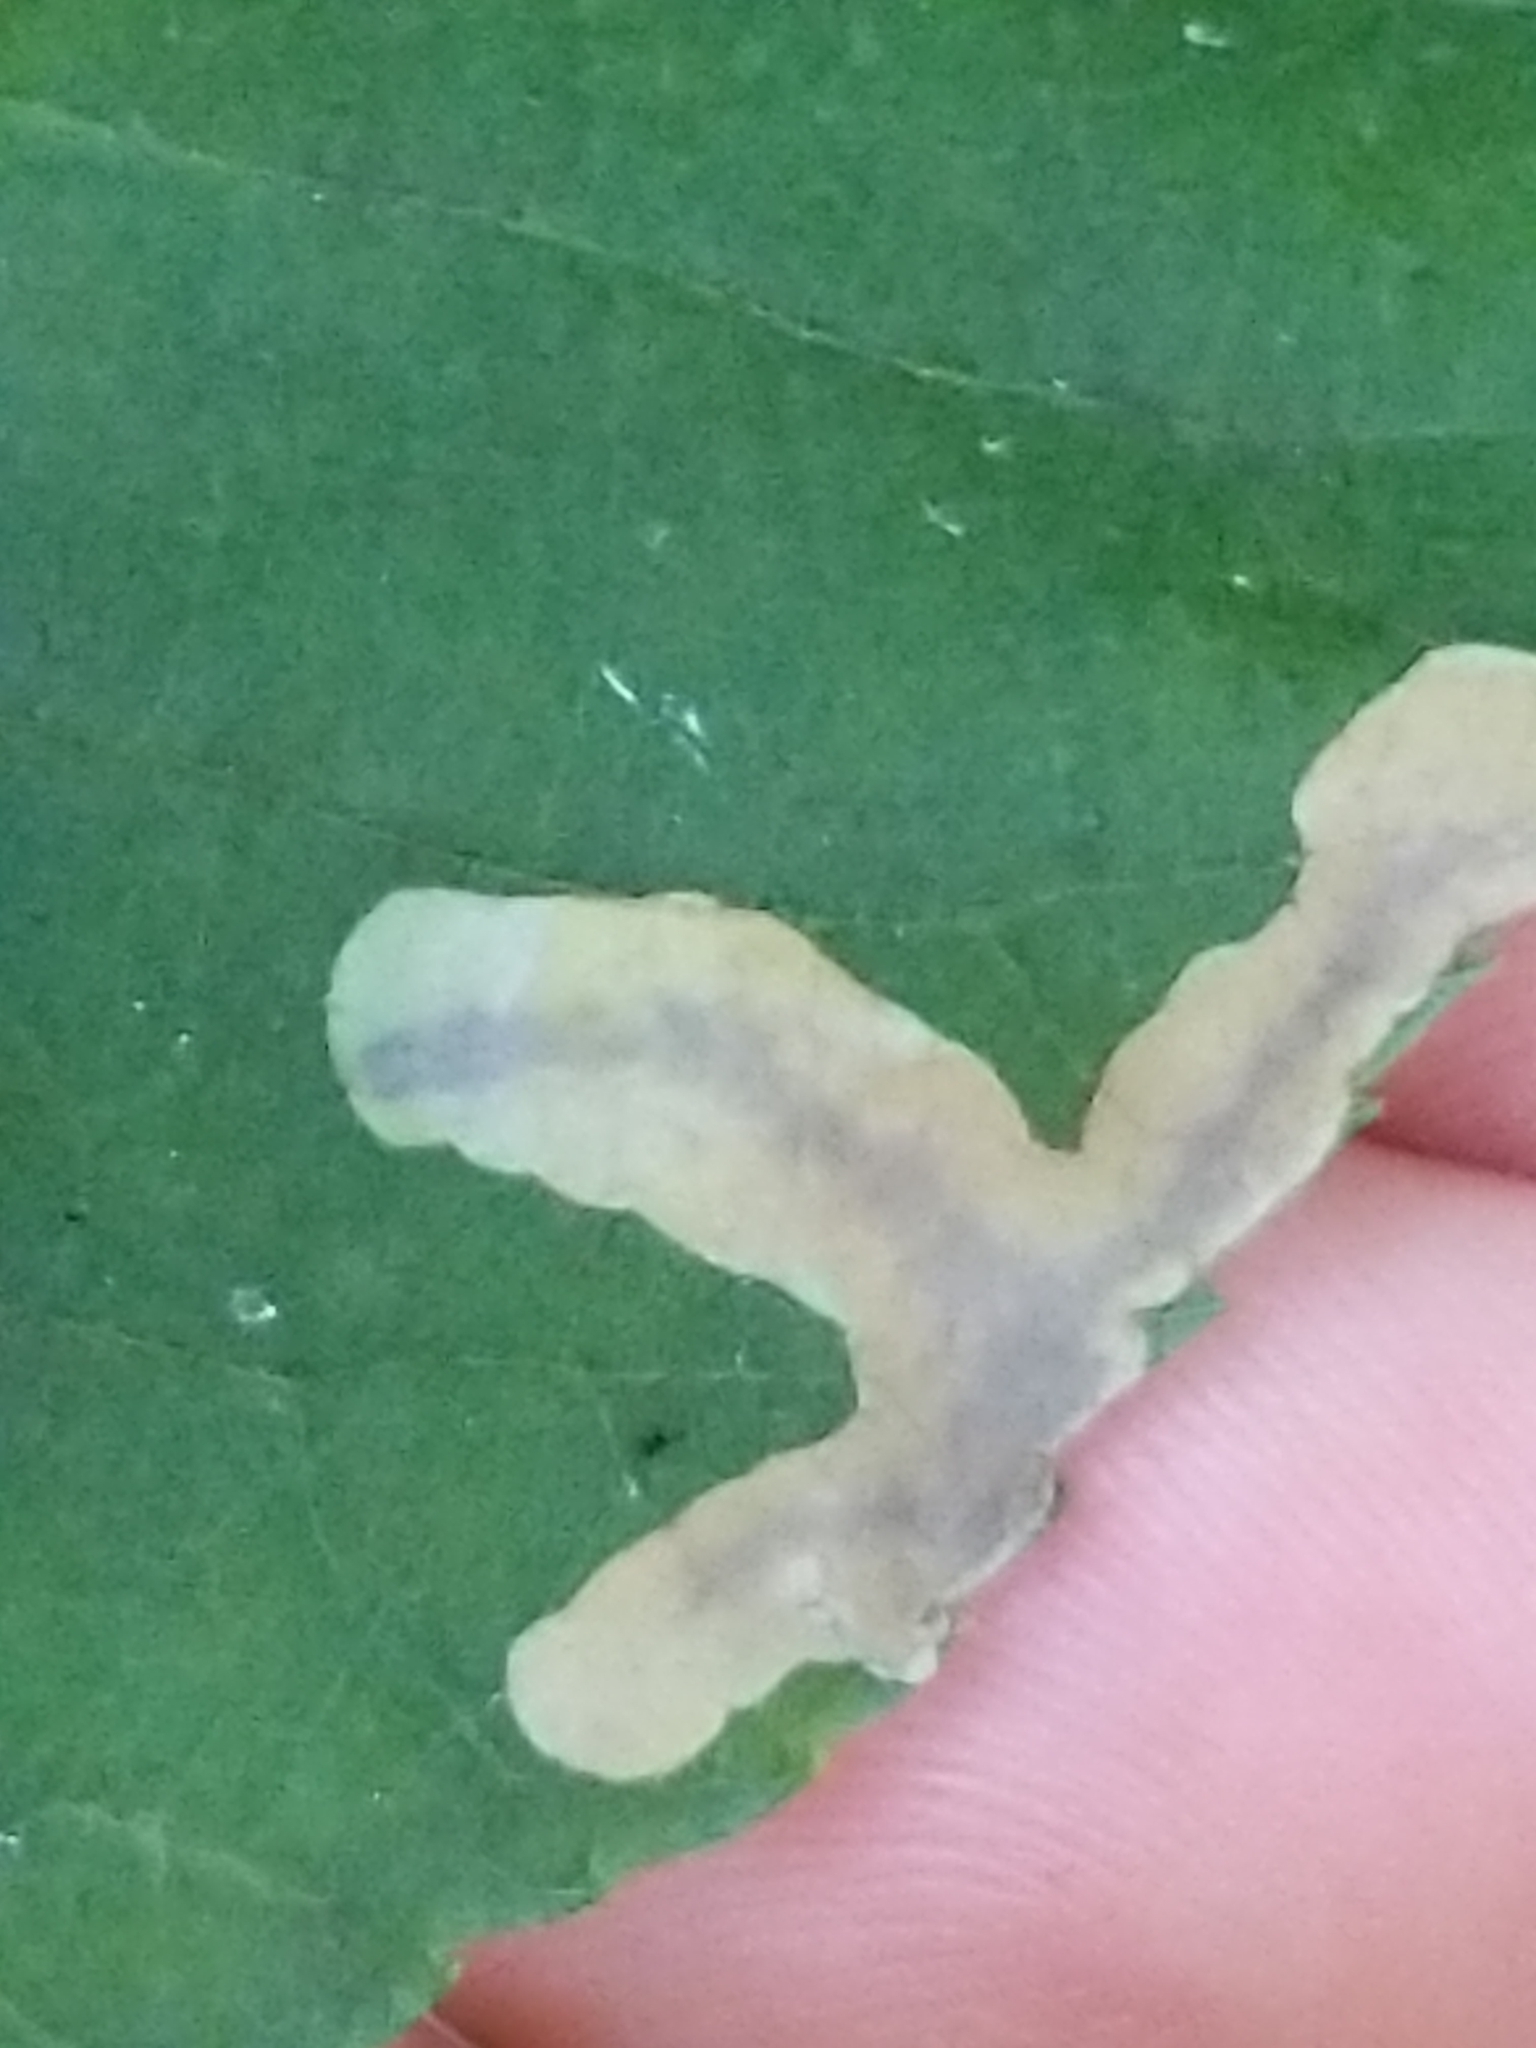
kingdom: Animalia
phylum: Arthropoda
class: Insecta
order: Lepidoptera
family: Gracillariidae
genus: Cameraria
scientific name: Cameraria caryaefoliella
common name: Pecan leafminer moth
